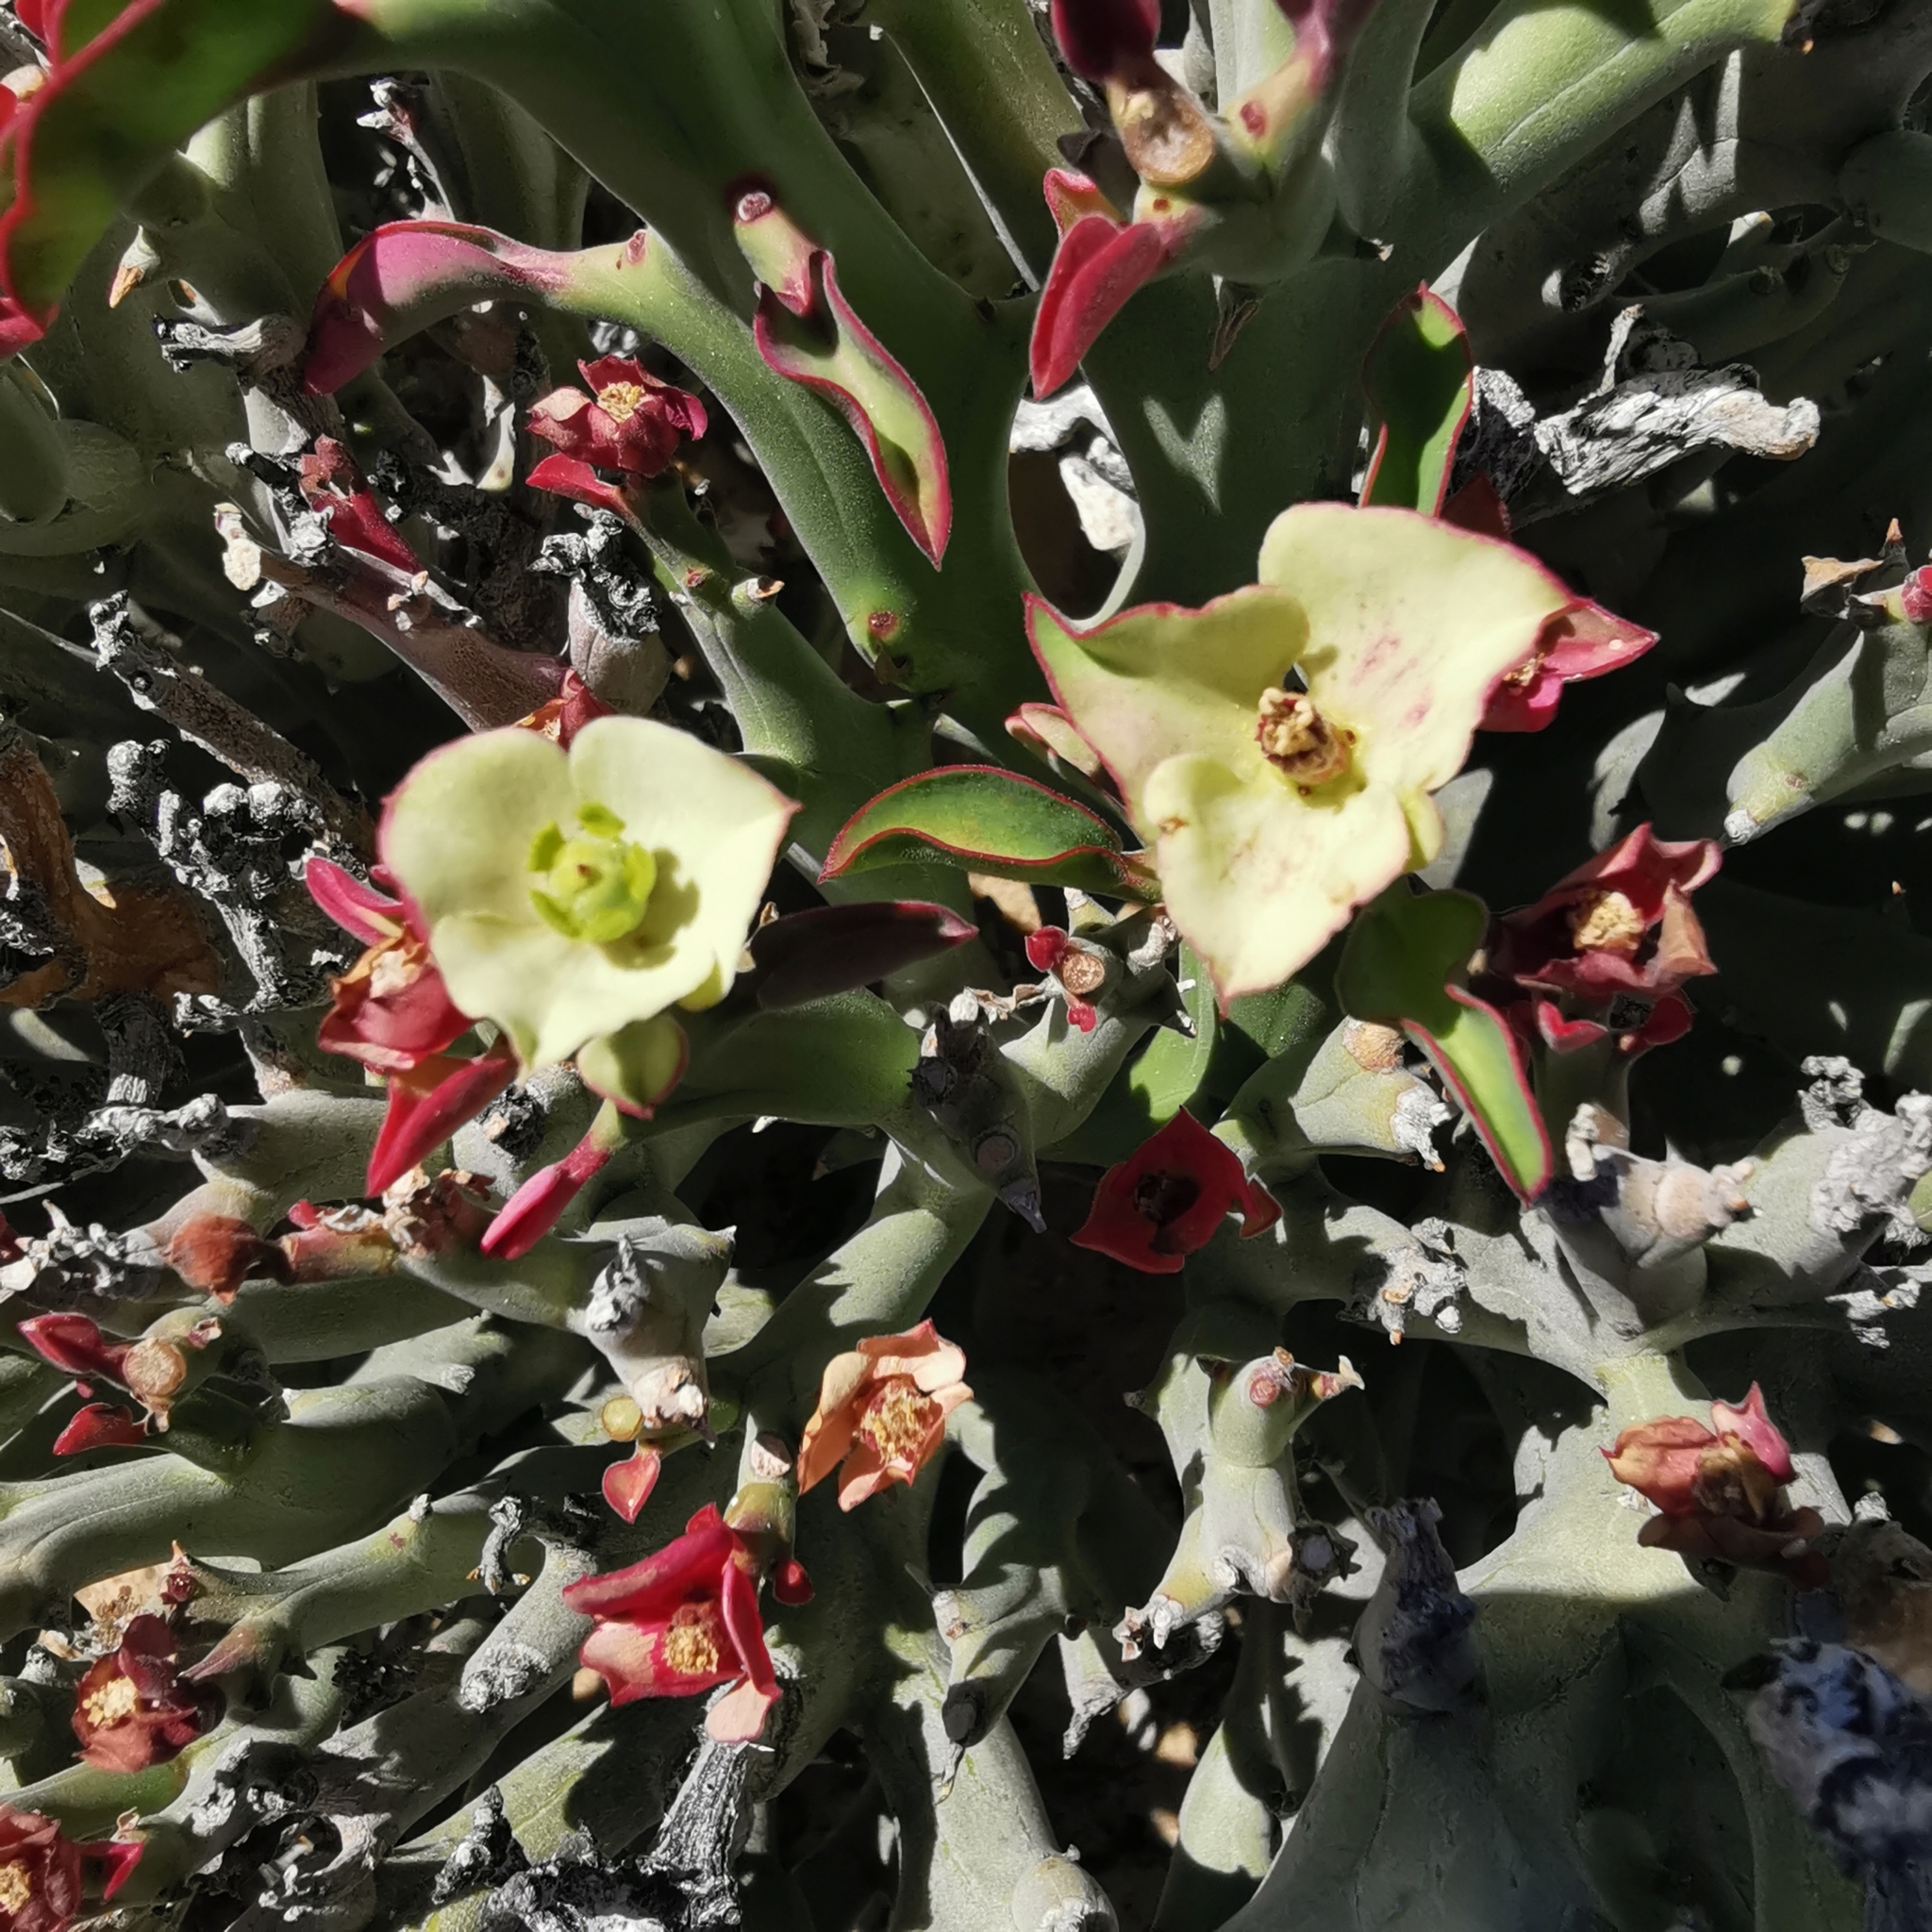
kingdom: Plantae
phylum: Tracheophyta
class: Magnoliopsida
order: Malpighiales
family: Euphorbiaceae
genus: Euphorbia
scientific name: Euphorbia hamata
